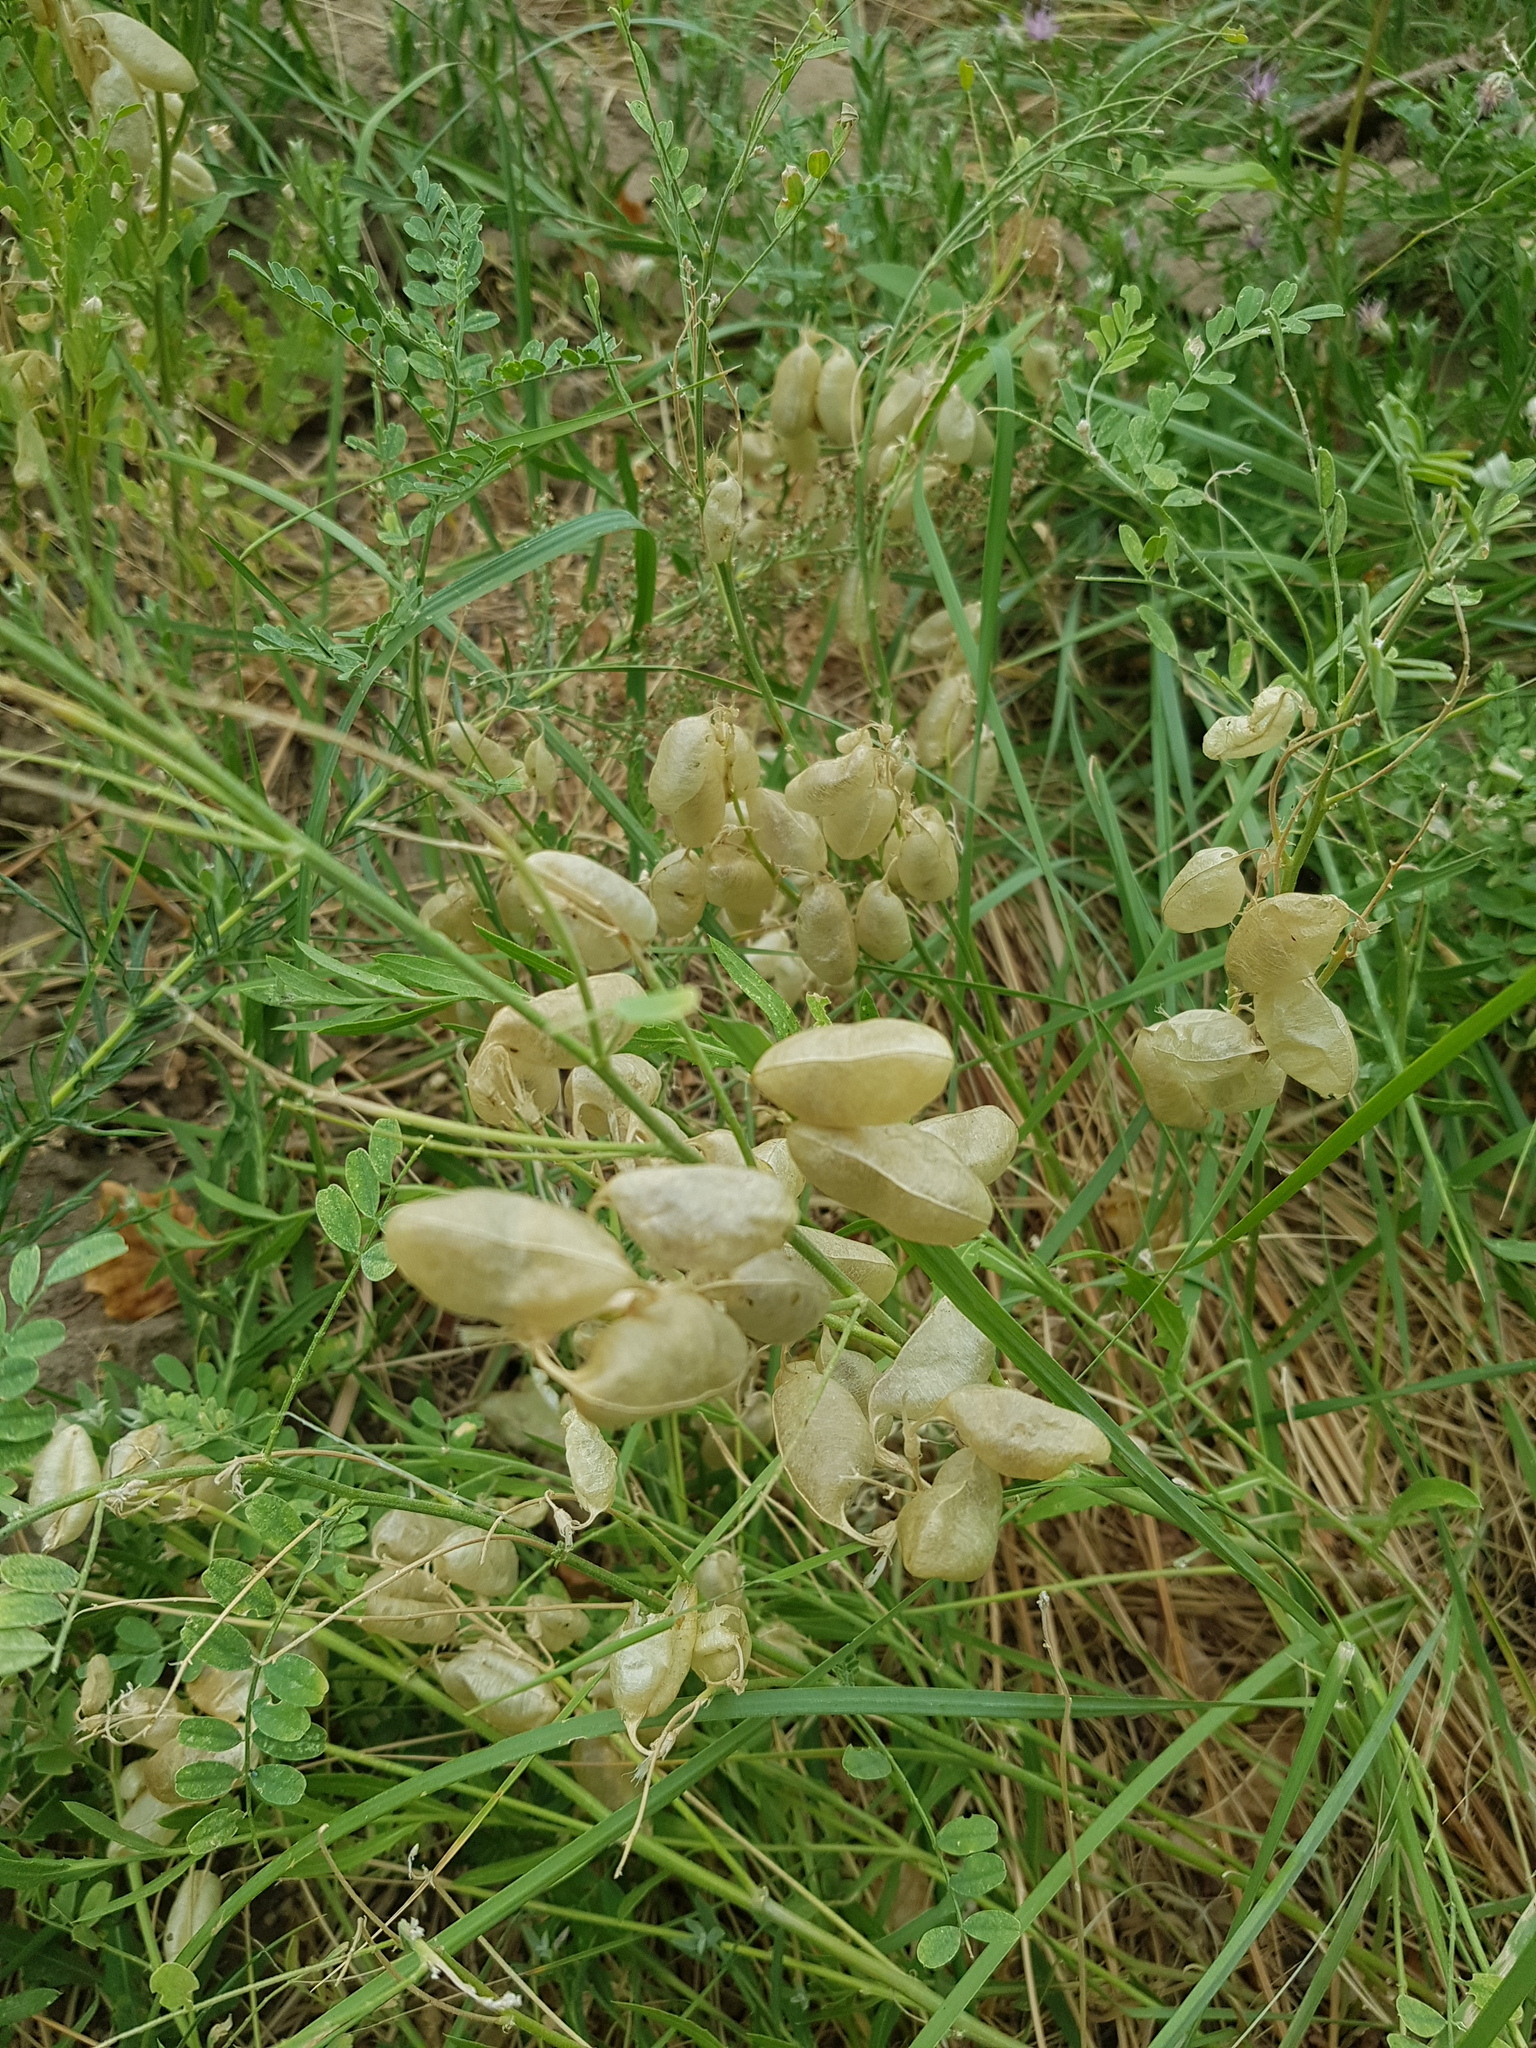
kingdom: Plantae
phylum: Tracheophyta
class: Magnoliopsida
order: Fabales
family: Fabaceae
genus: Sphaerophysa
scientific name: Sphaerophysa salsula
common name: Alkali swainsonpea
